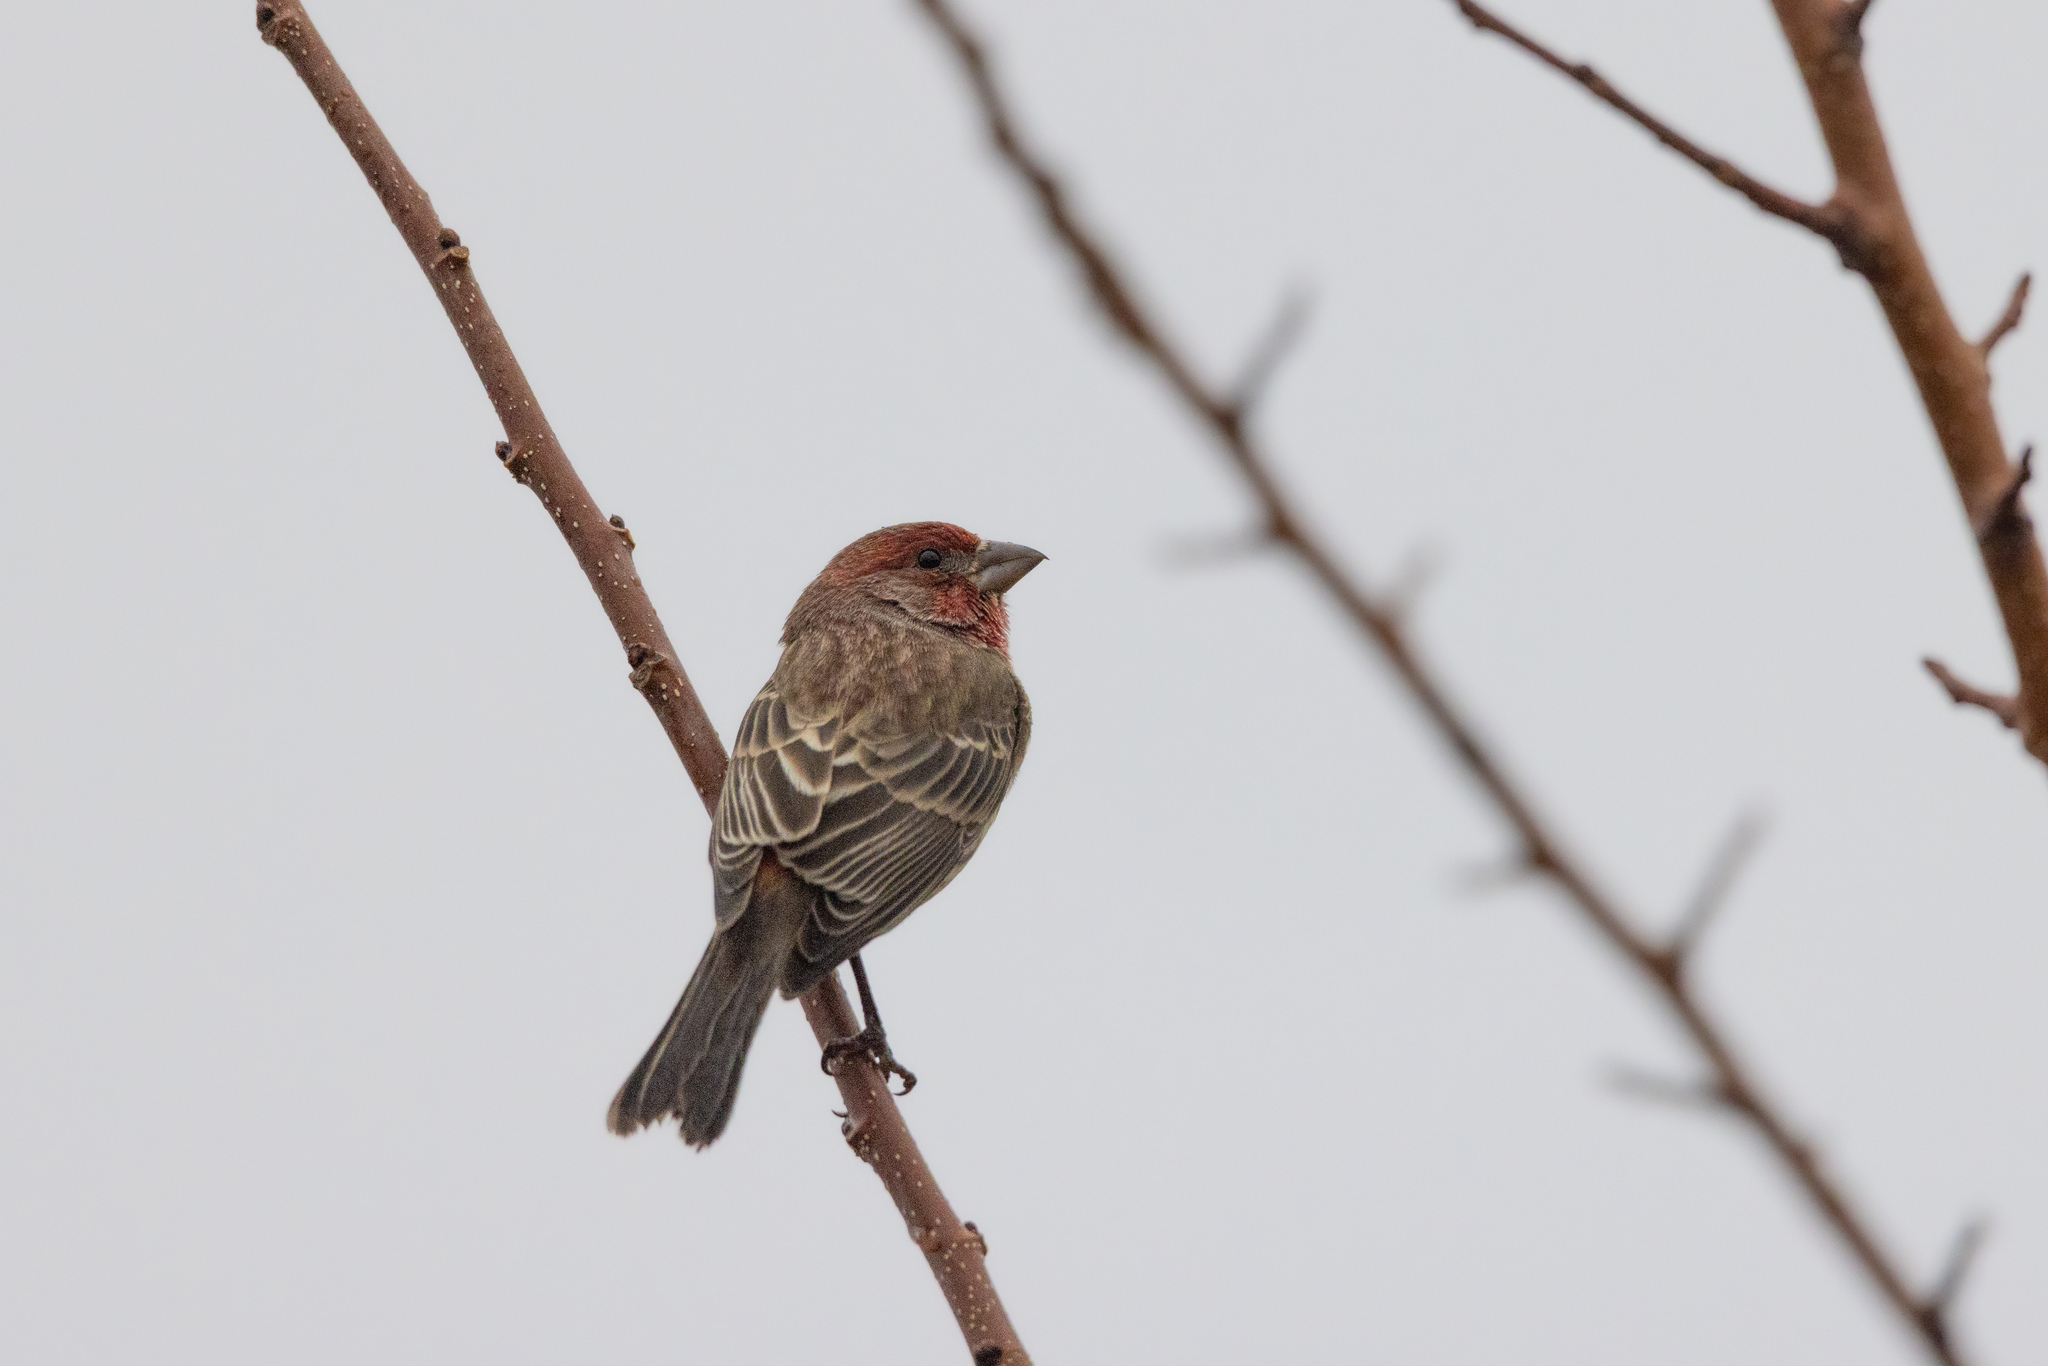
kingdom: Animalia
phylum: Chordata
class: Aves
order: Passeriformes
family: Fringillidae
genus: Haemorhous
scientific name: Haemorhous mexicanus
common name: House finch
